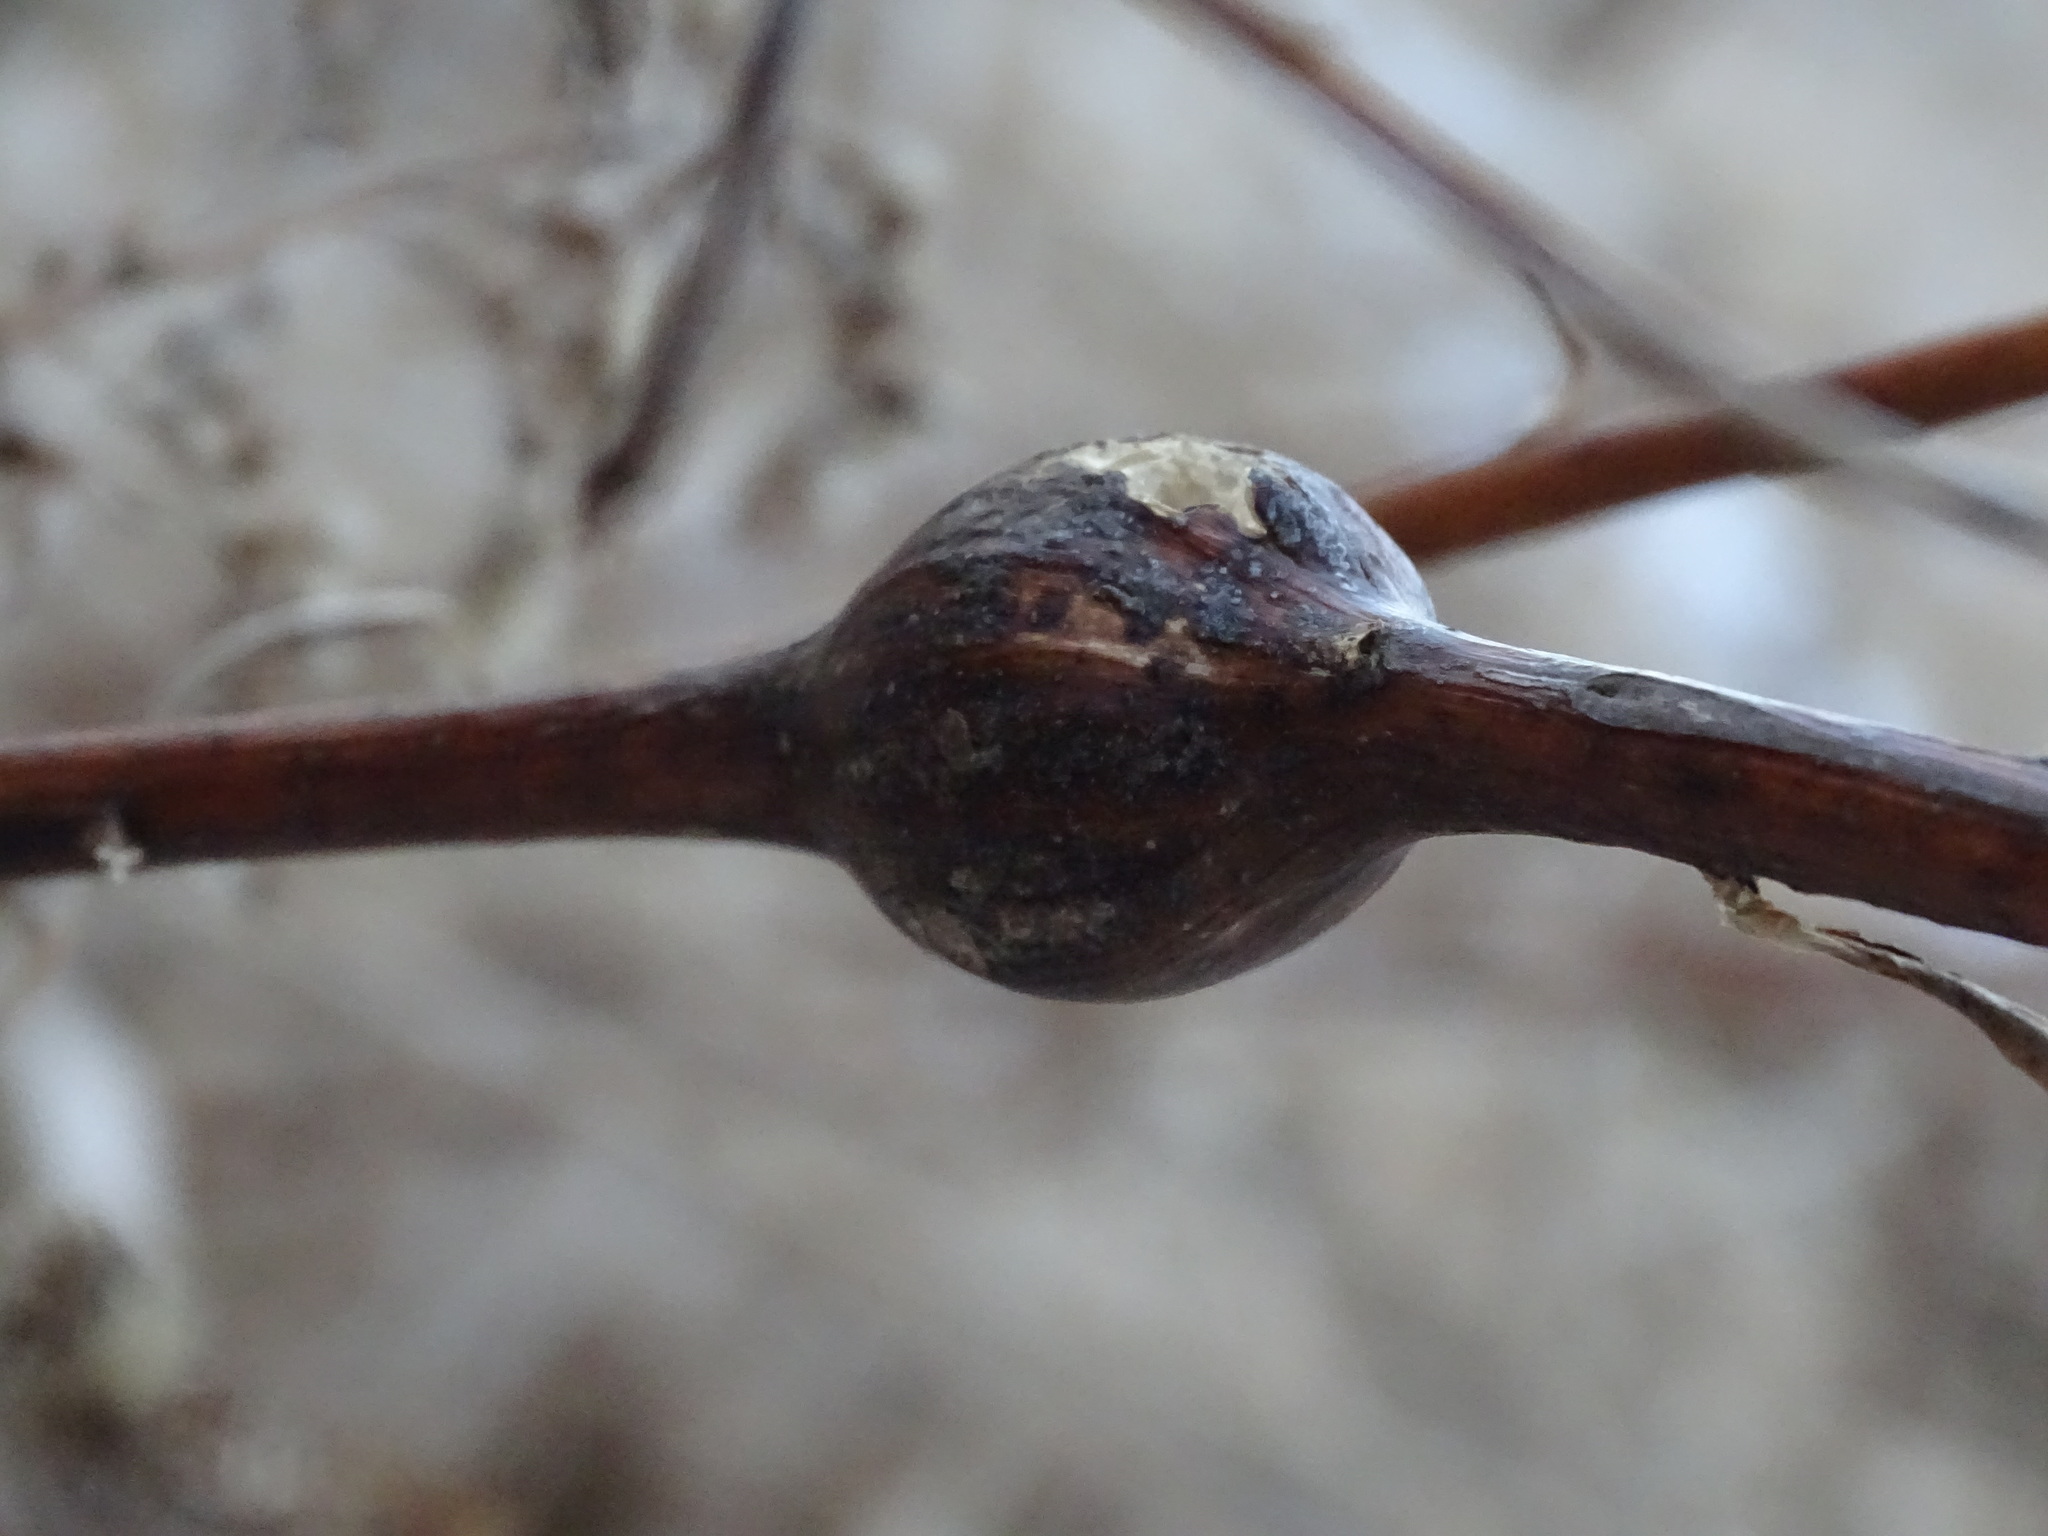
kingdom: Animalia
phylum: Arthropoda
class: Insecta
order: Diptera
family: Tephritidae
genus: Eurosta
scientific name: Eurosta solidaginis
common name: Goldenrod gall fly
